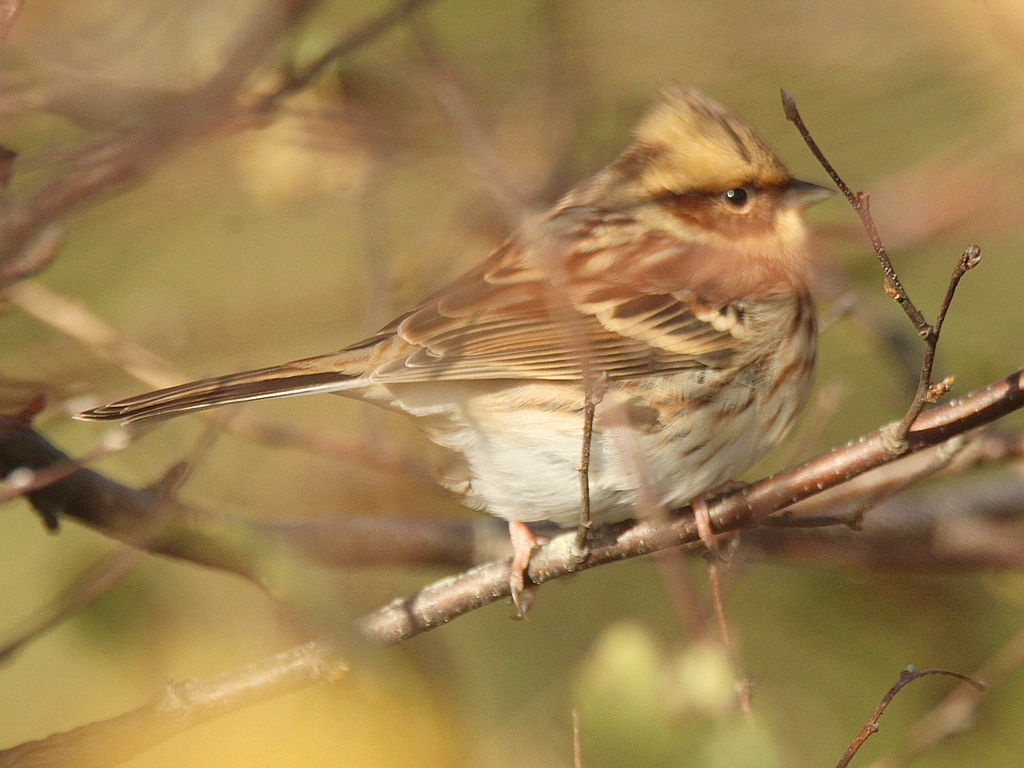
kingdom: Animalia
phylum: Chordata
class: Aves
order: Passeriformes
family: Emberizidae
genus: Emberiza
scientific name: Emberiza elegans
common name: Yellow-throated bunting
